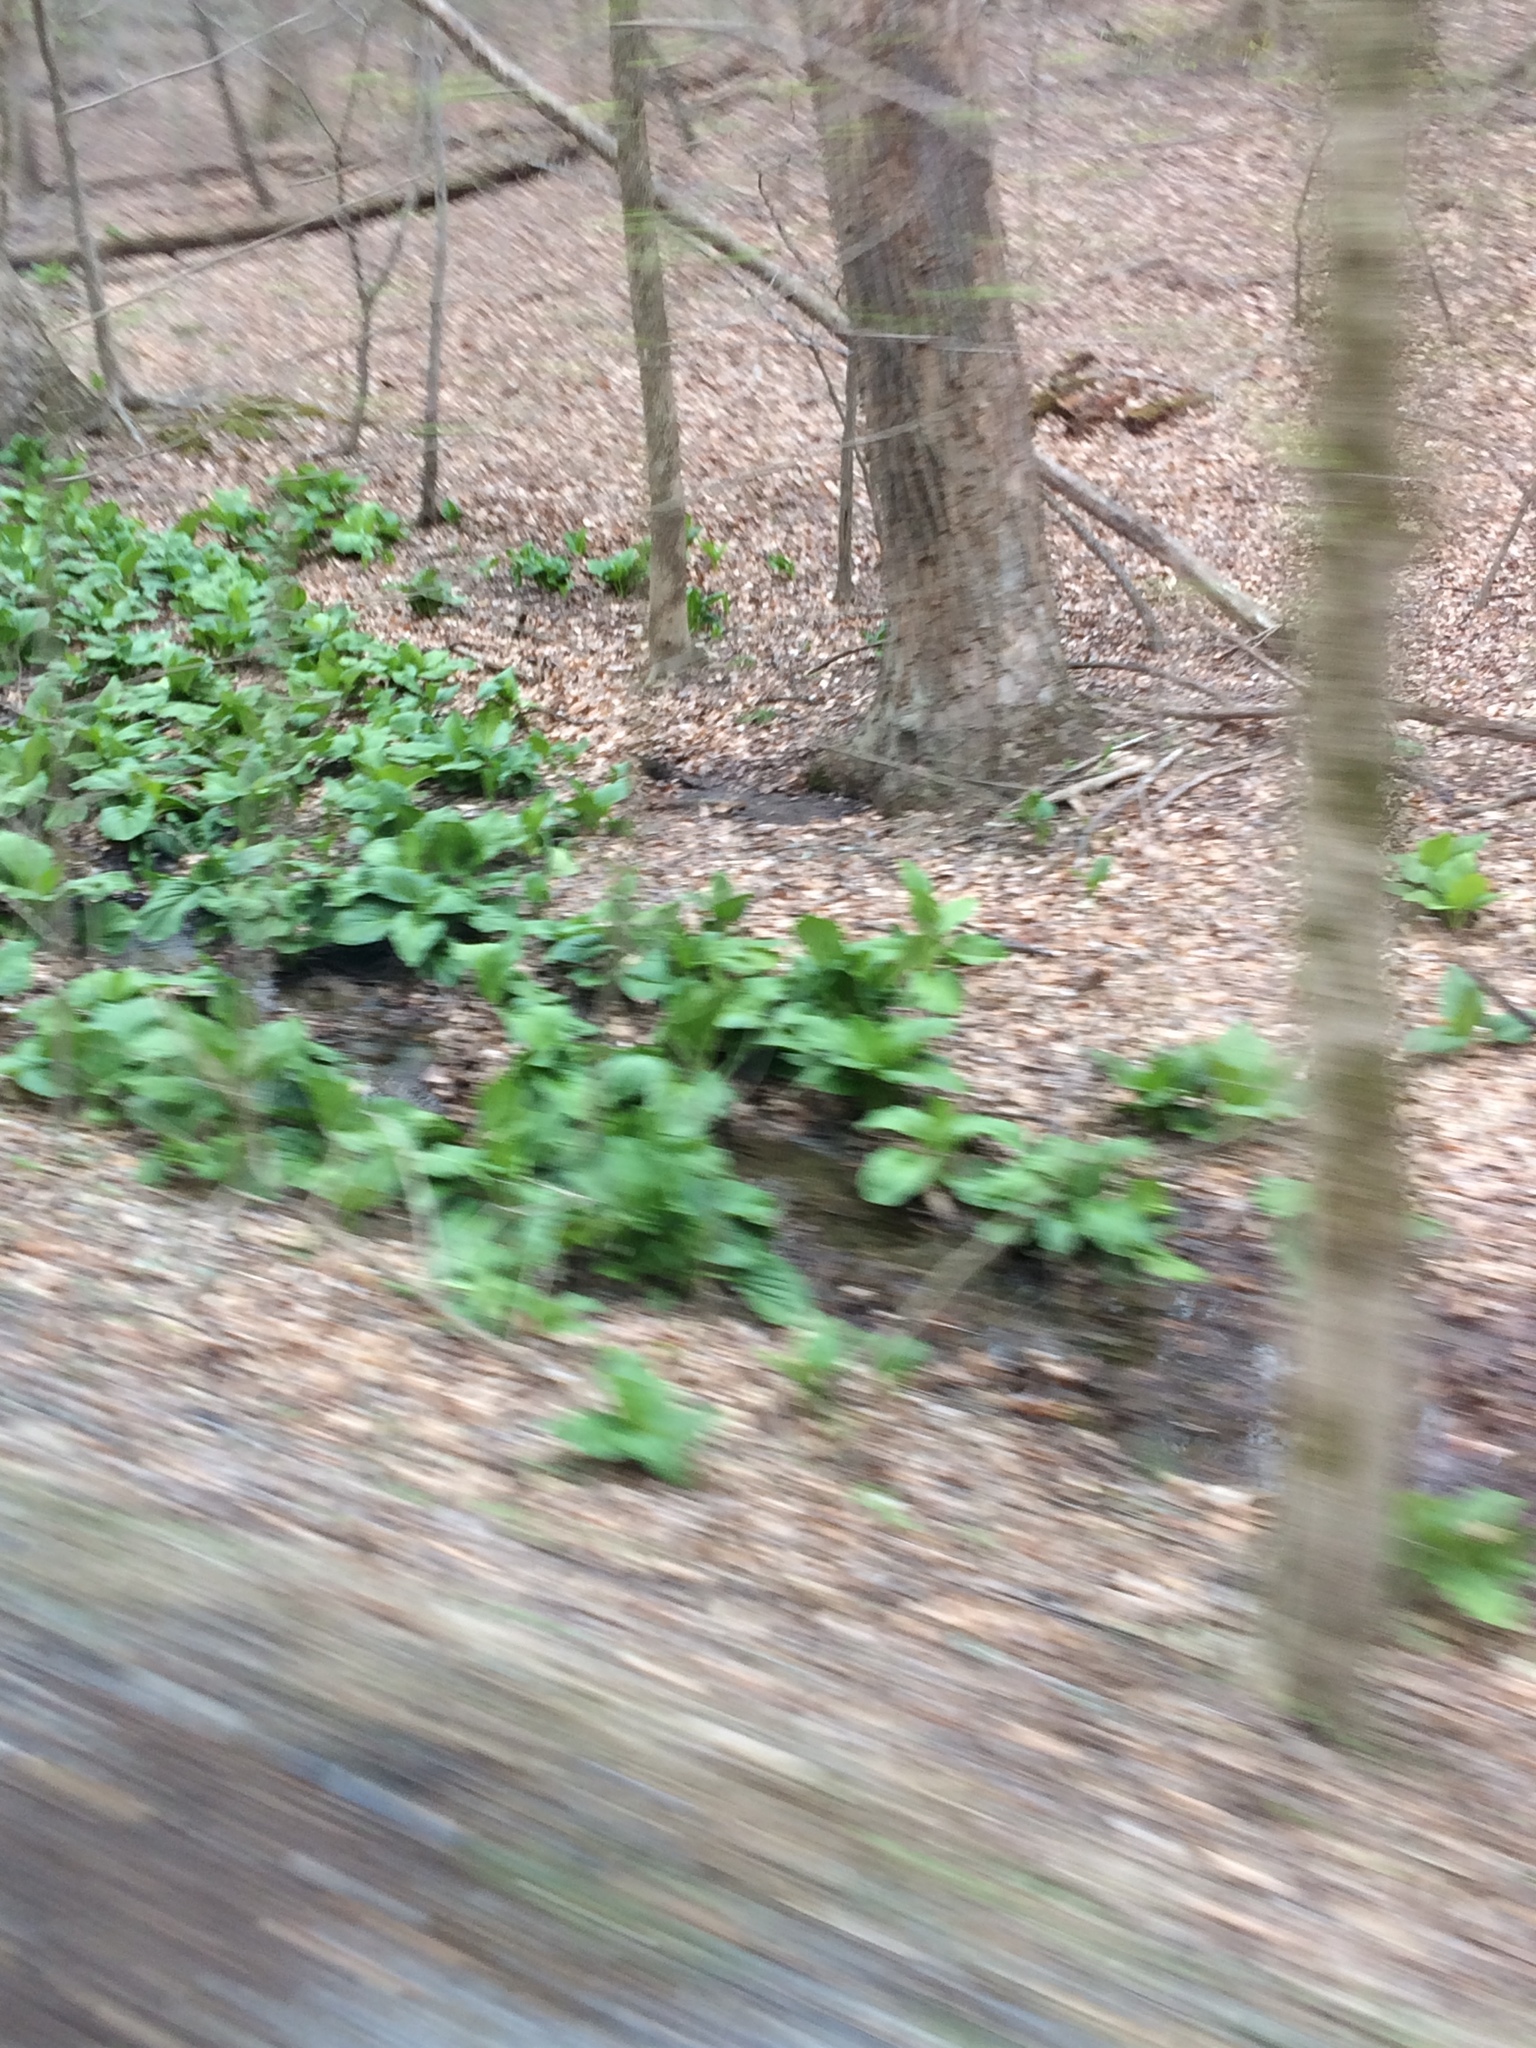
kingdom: Plantae
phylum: Tracheophyta
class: Liliopsida
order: Alismatales
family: Araceae
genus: Symplocarpus
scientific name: Symplocarpus foetidus
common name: Eastern skunk cabbage
